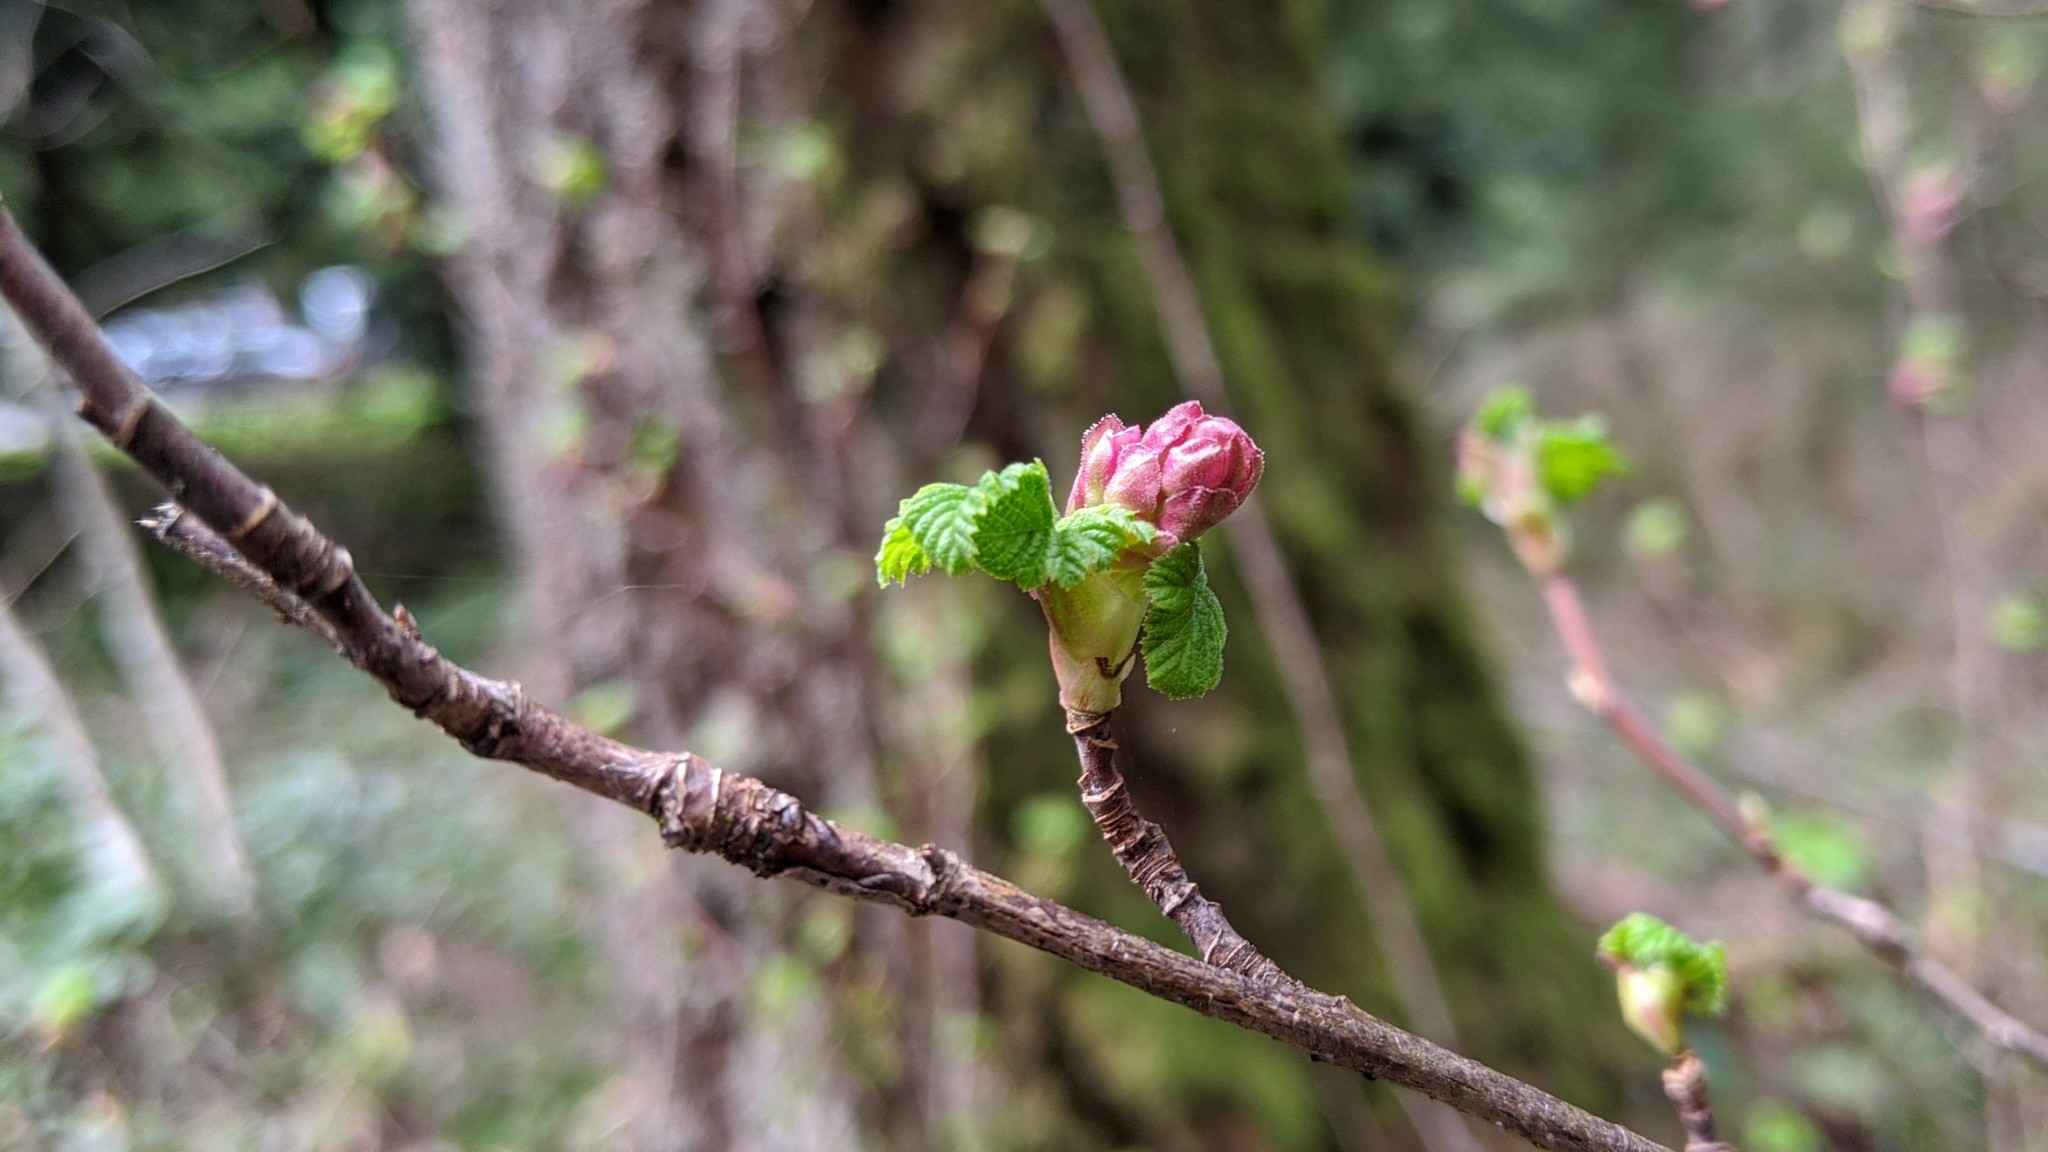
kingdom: Plantae
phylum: Tracheophyta
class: Magnoliopsida
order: Saxifragales
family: Grossulariaceae
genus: Ribes
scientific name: Ribes sanguineum
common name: Flowering currant
